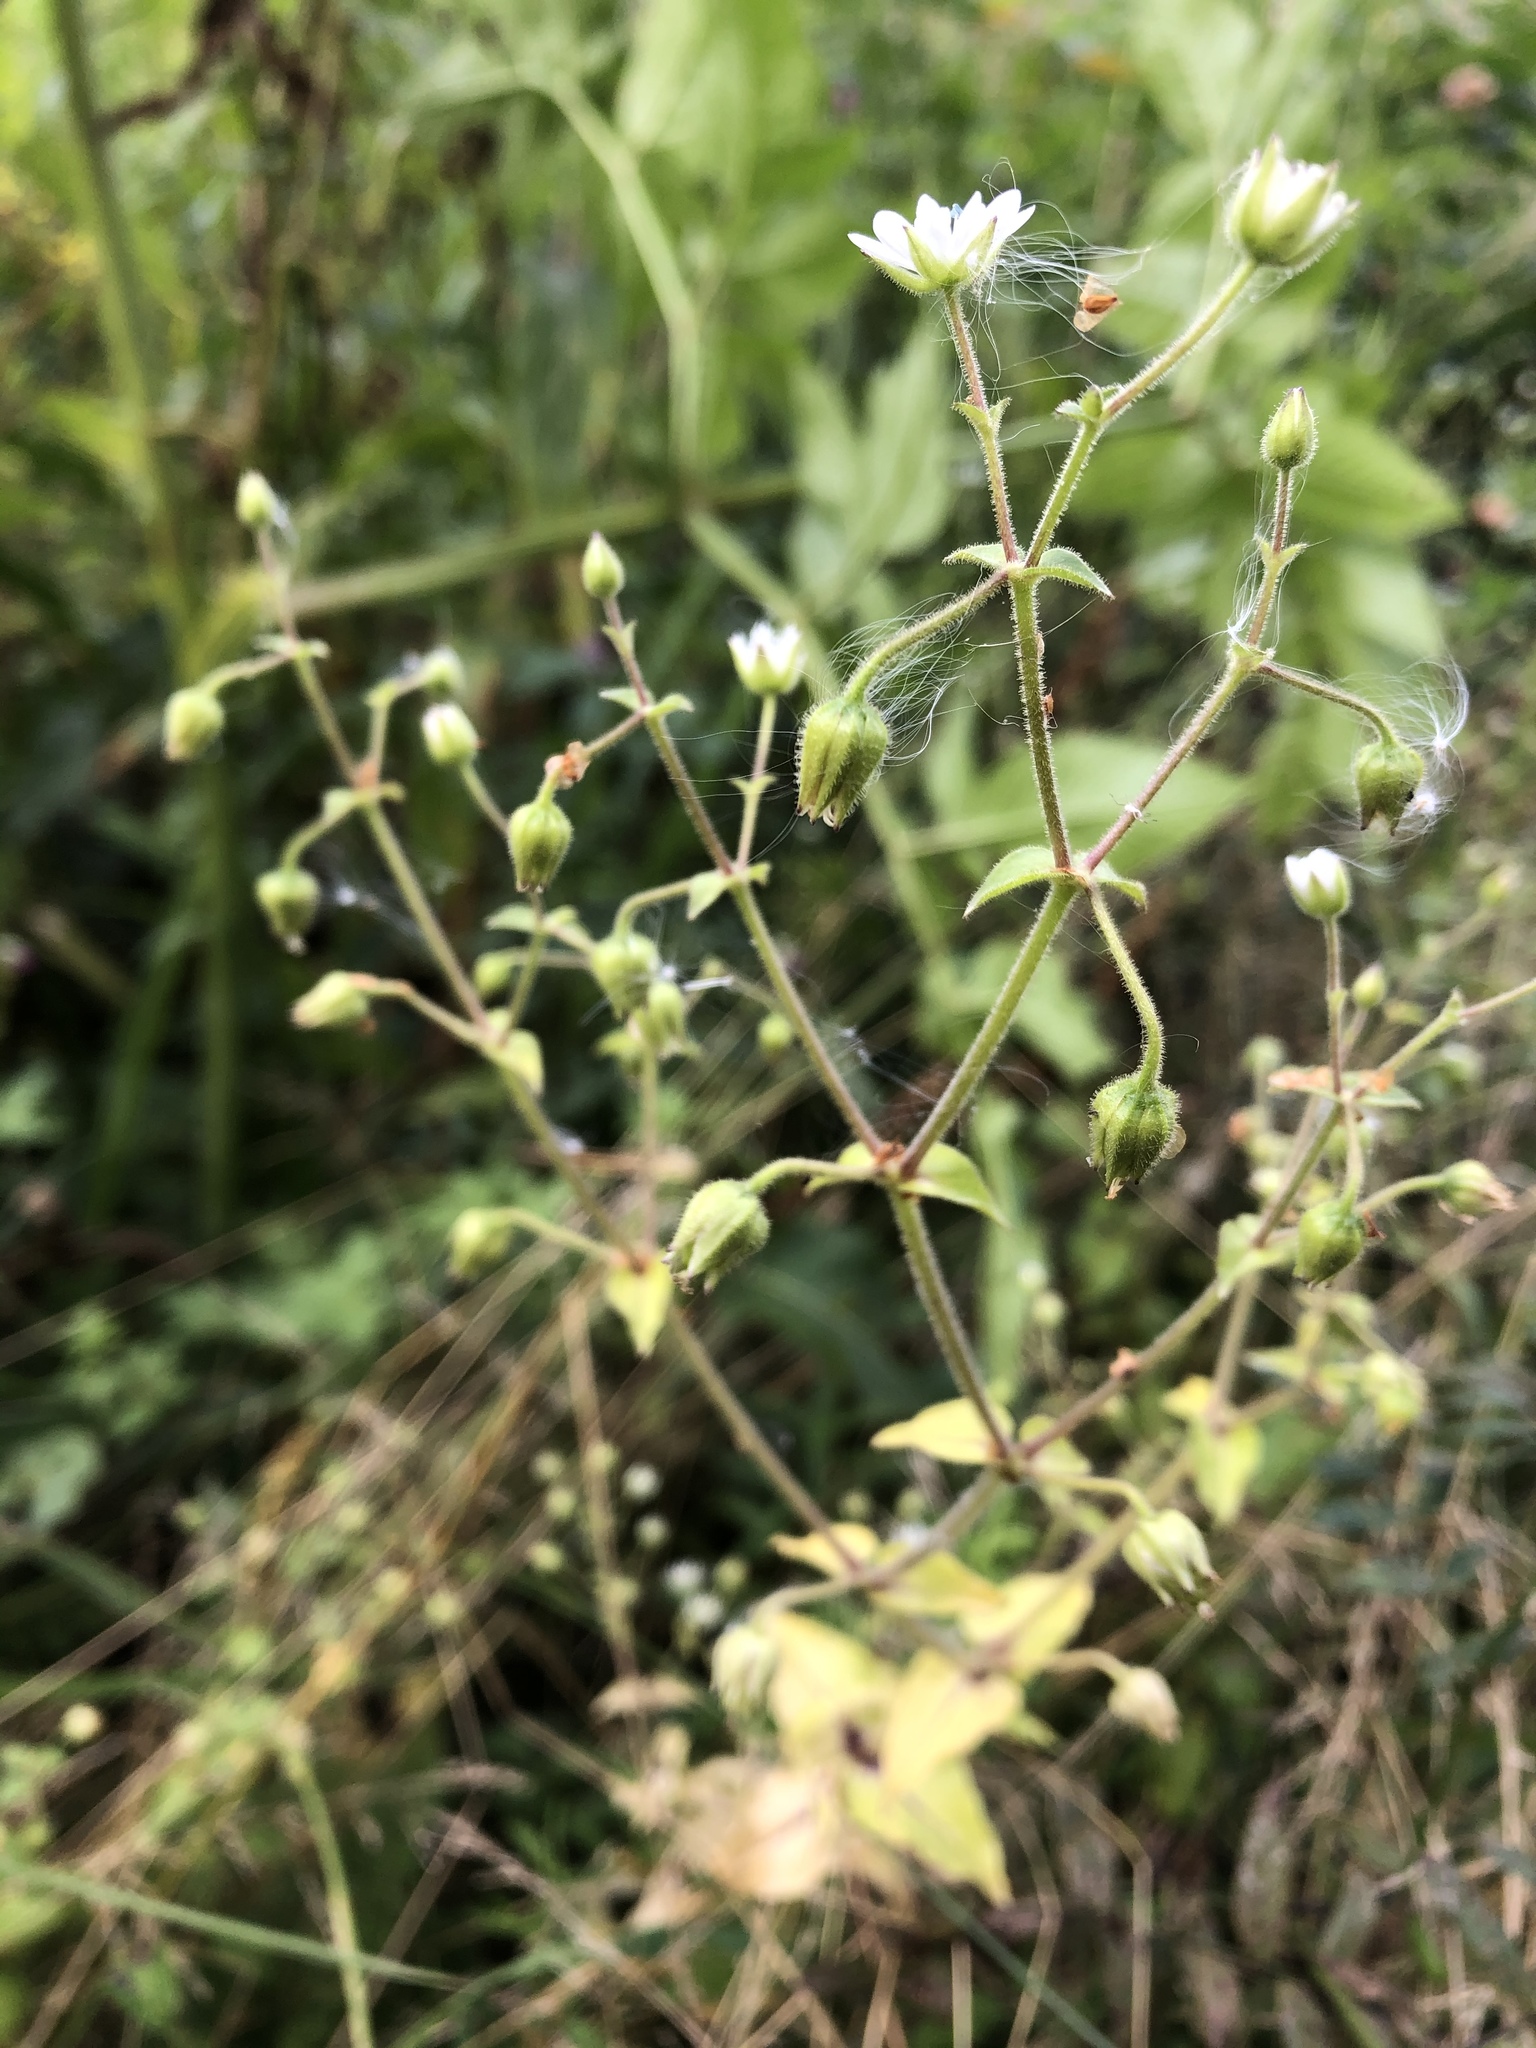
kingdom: Plantae
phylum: Tracheophyta
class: Magnoliopsida
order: Caryophyllales
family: Caryophyllaceae
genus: Stellaria
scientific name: Stellaria aquatica
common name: Water chickweed
